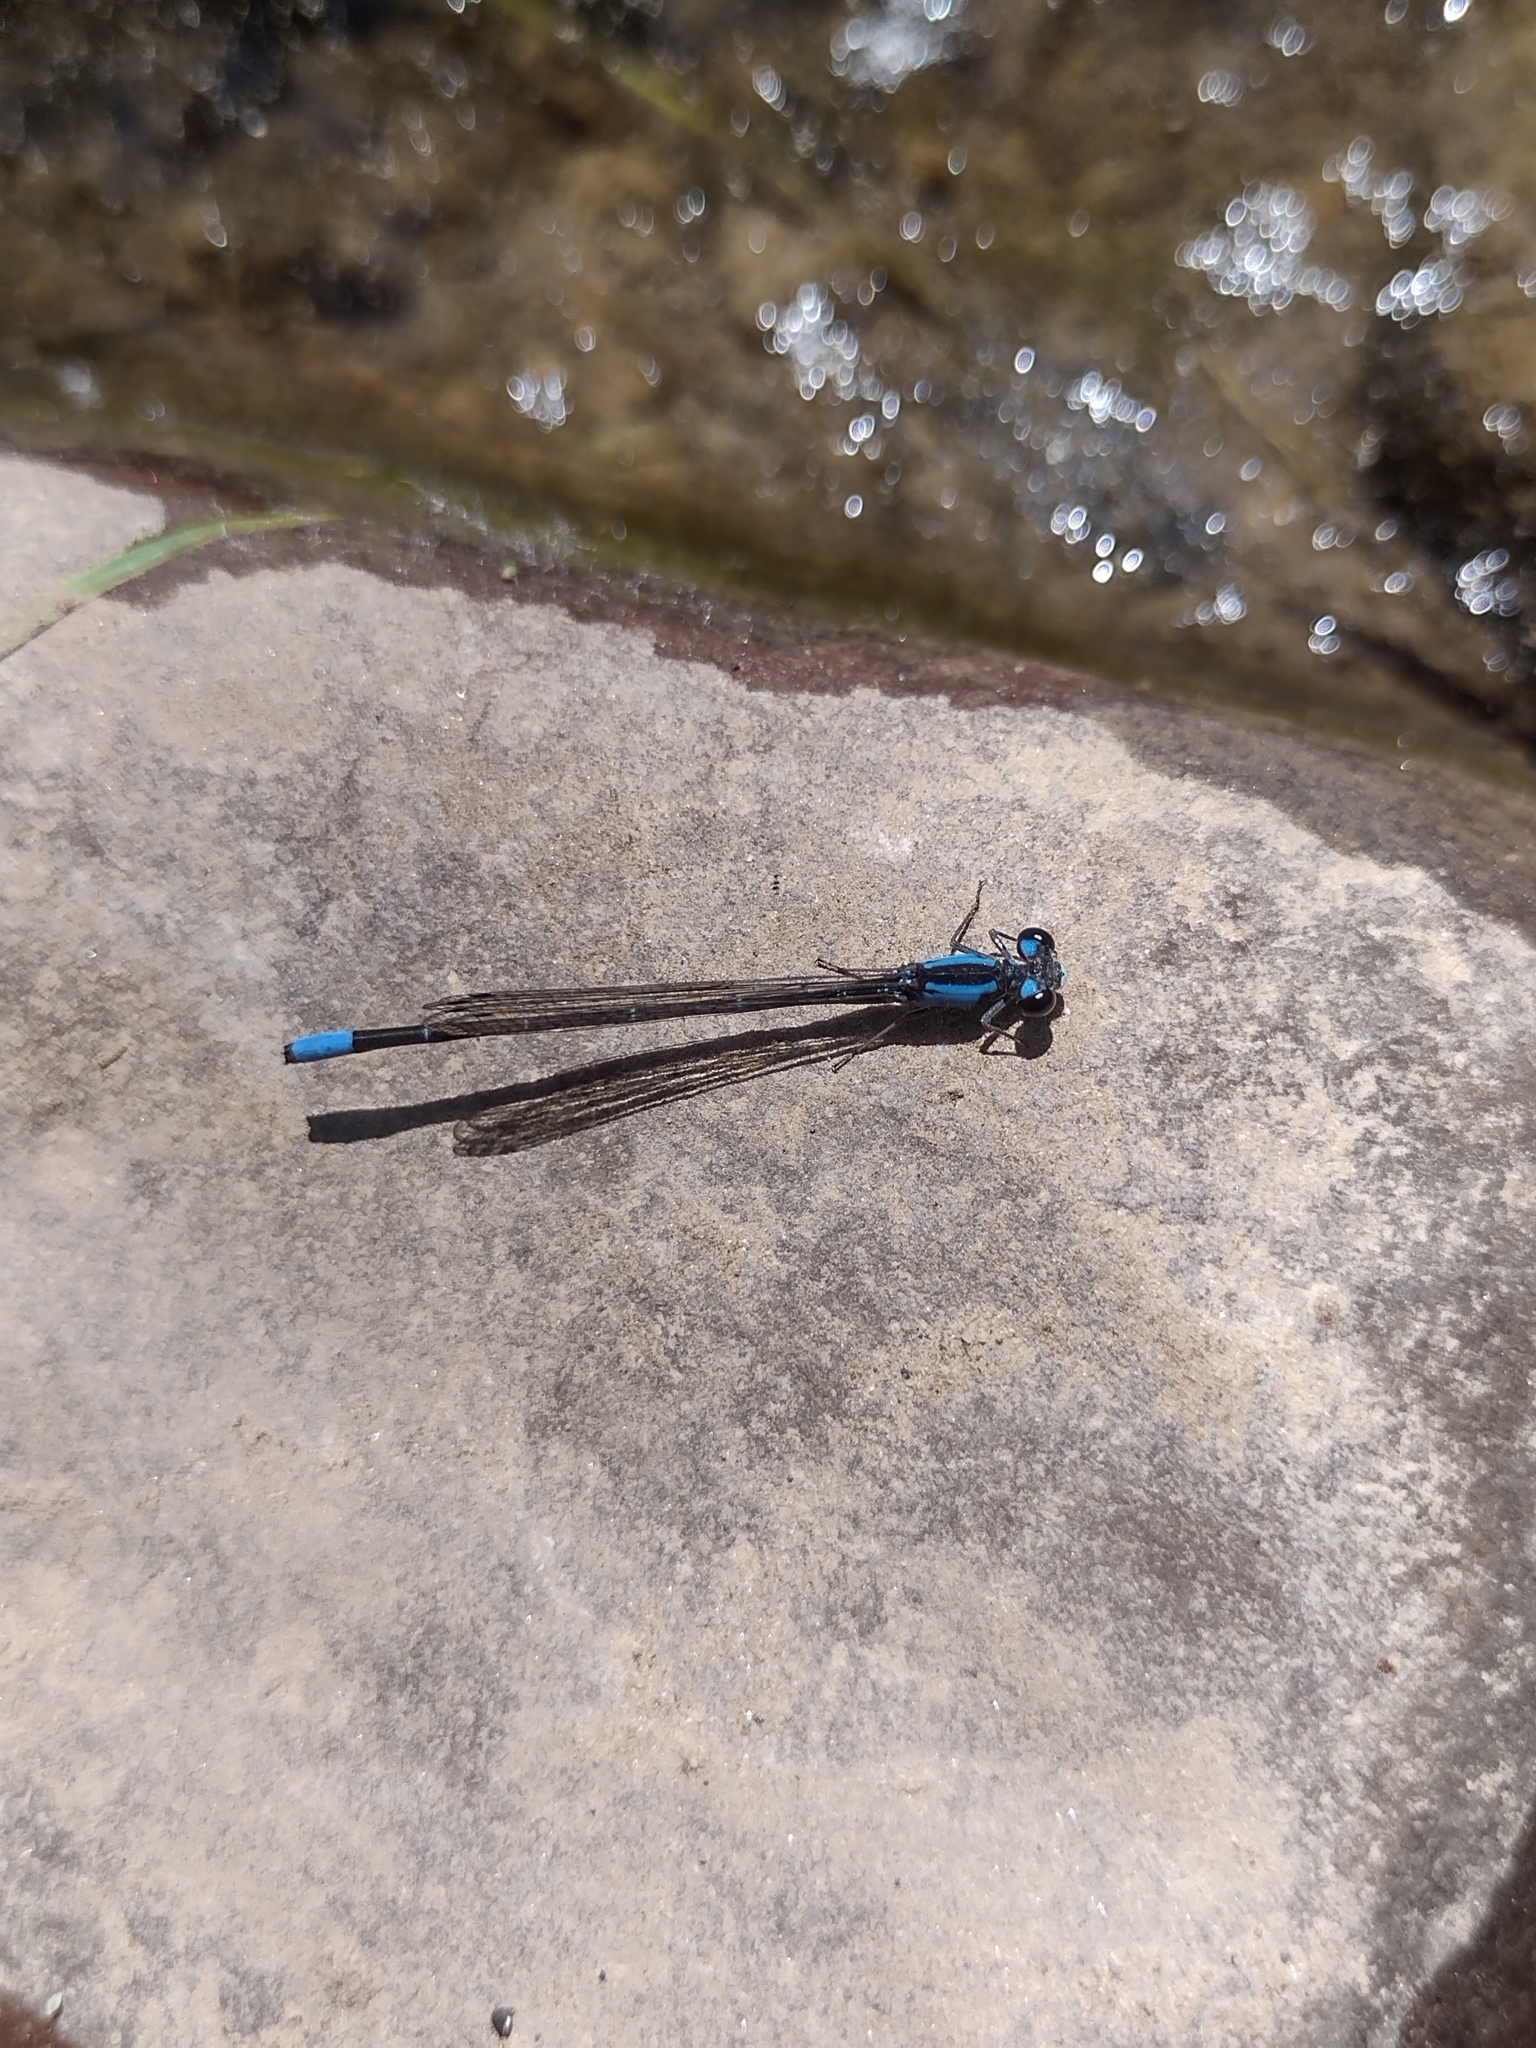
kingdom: Animalia
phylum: Arthropoda
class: Insecta
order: Odonata
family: Coenagrionidae
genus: Oxyagrion
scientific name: Oxyagrion ablutum
